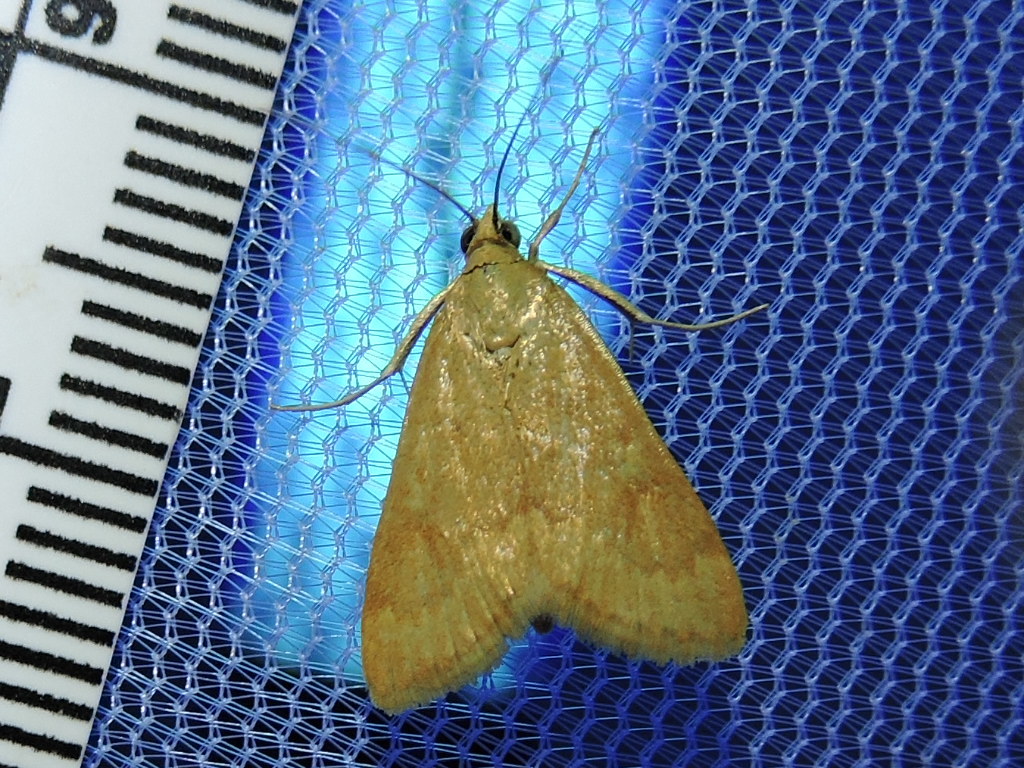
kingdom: Animalia
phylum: Arthropoda
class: Insecta
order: Lepidoptera
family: Crambidae
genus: Achyra
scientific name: Achyra rantalis
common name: Garden webworm
